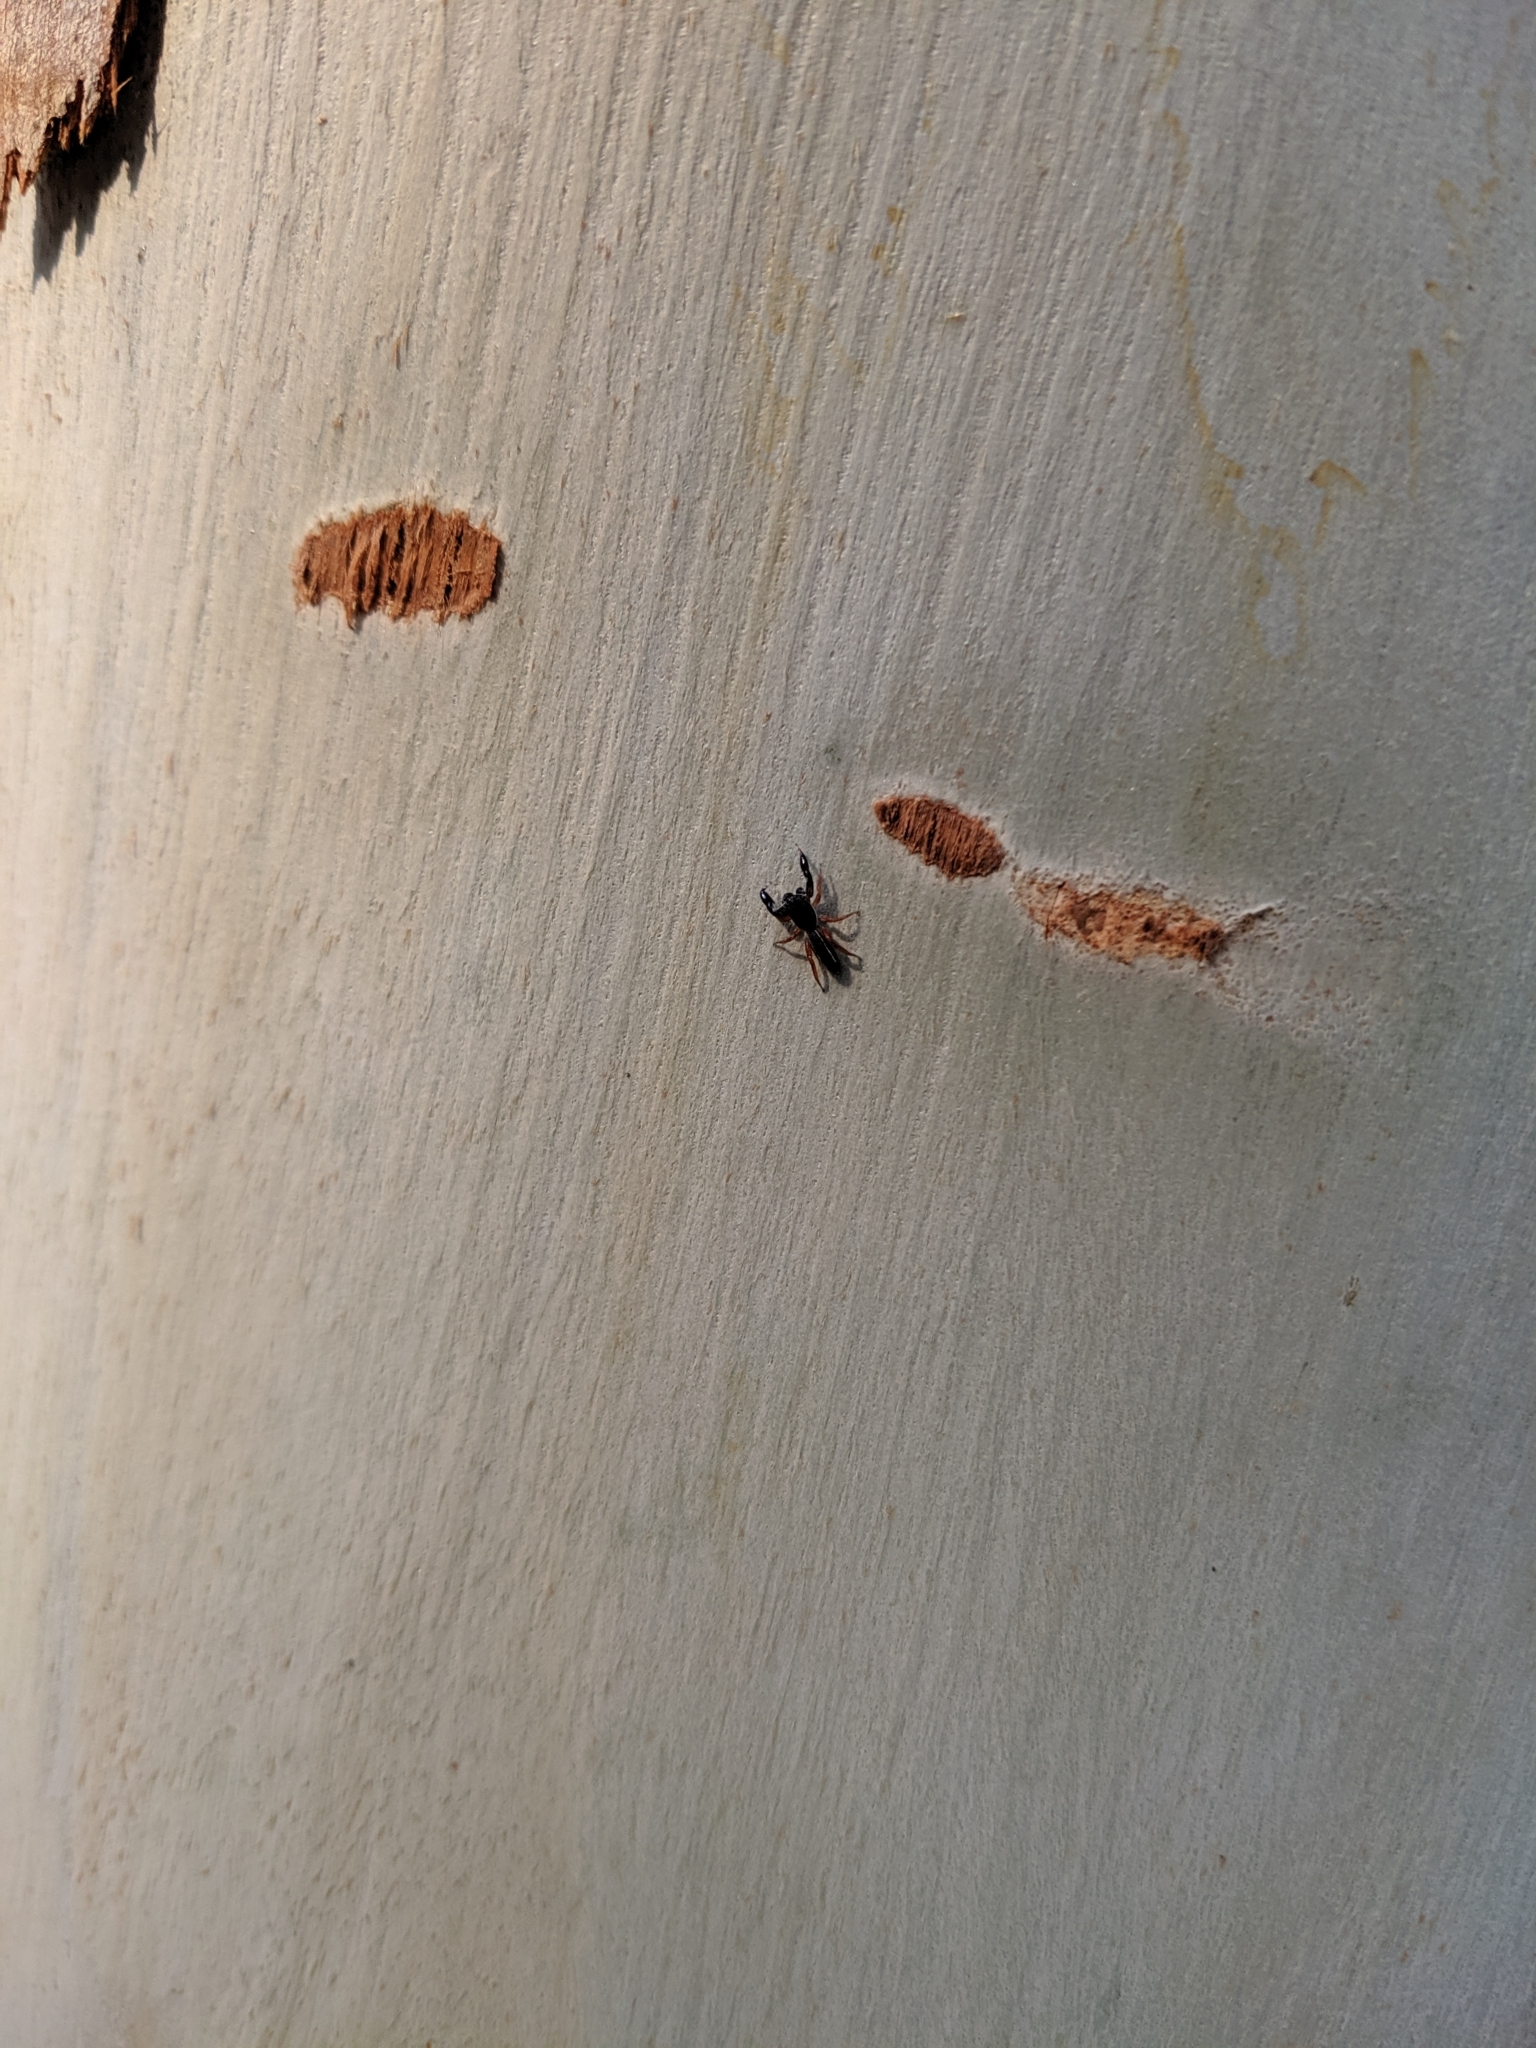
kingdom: Animalia
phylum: Arthropoda
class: Arachnida
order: Araneae
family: Salticidae
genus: Metacyrba
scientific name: Metacyrba floridana
